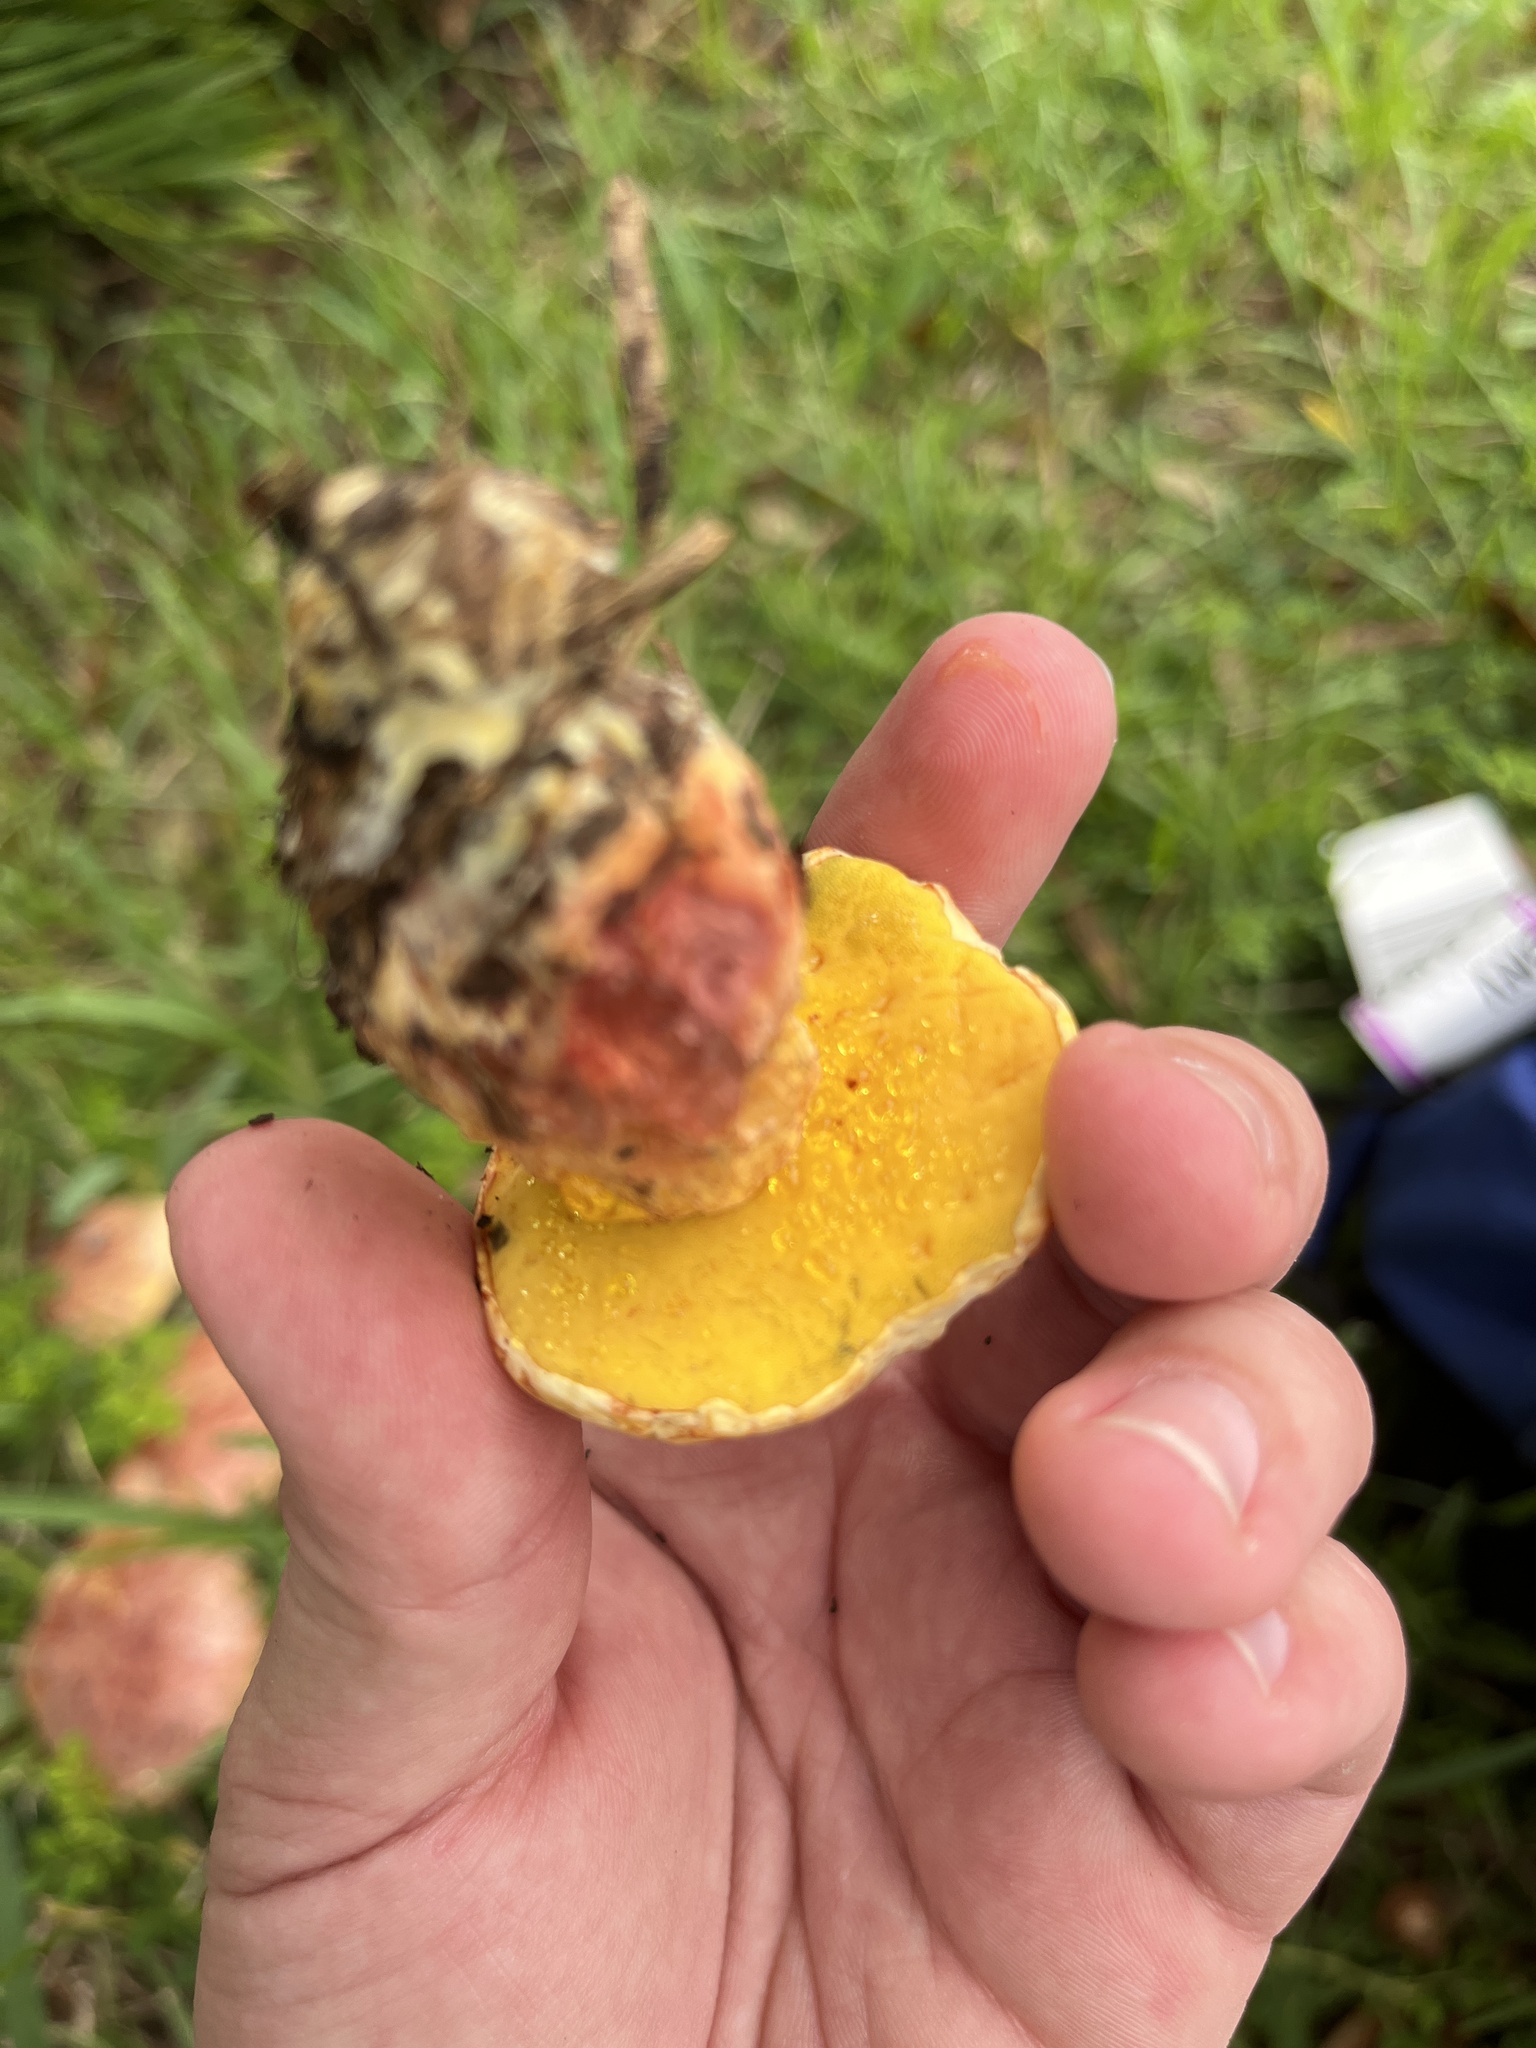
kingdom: Fungi
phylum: Basidiomycota
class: Agaricomycetes
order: Boletales
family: Boletaceae
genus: Pulchroboletus
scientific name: Pulchroboletus rubricitrinus
